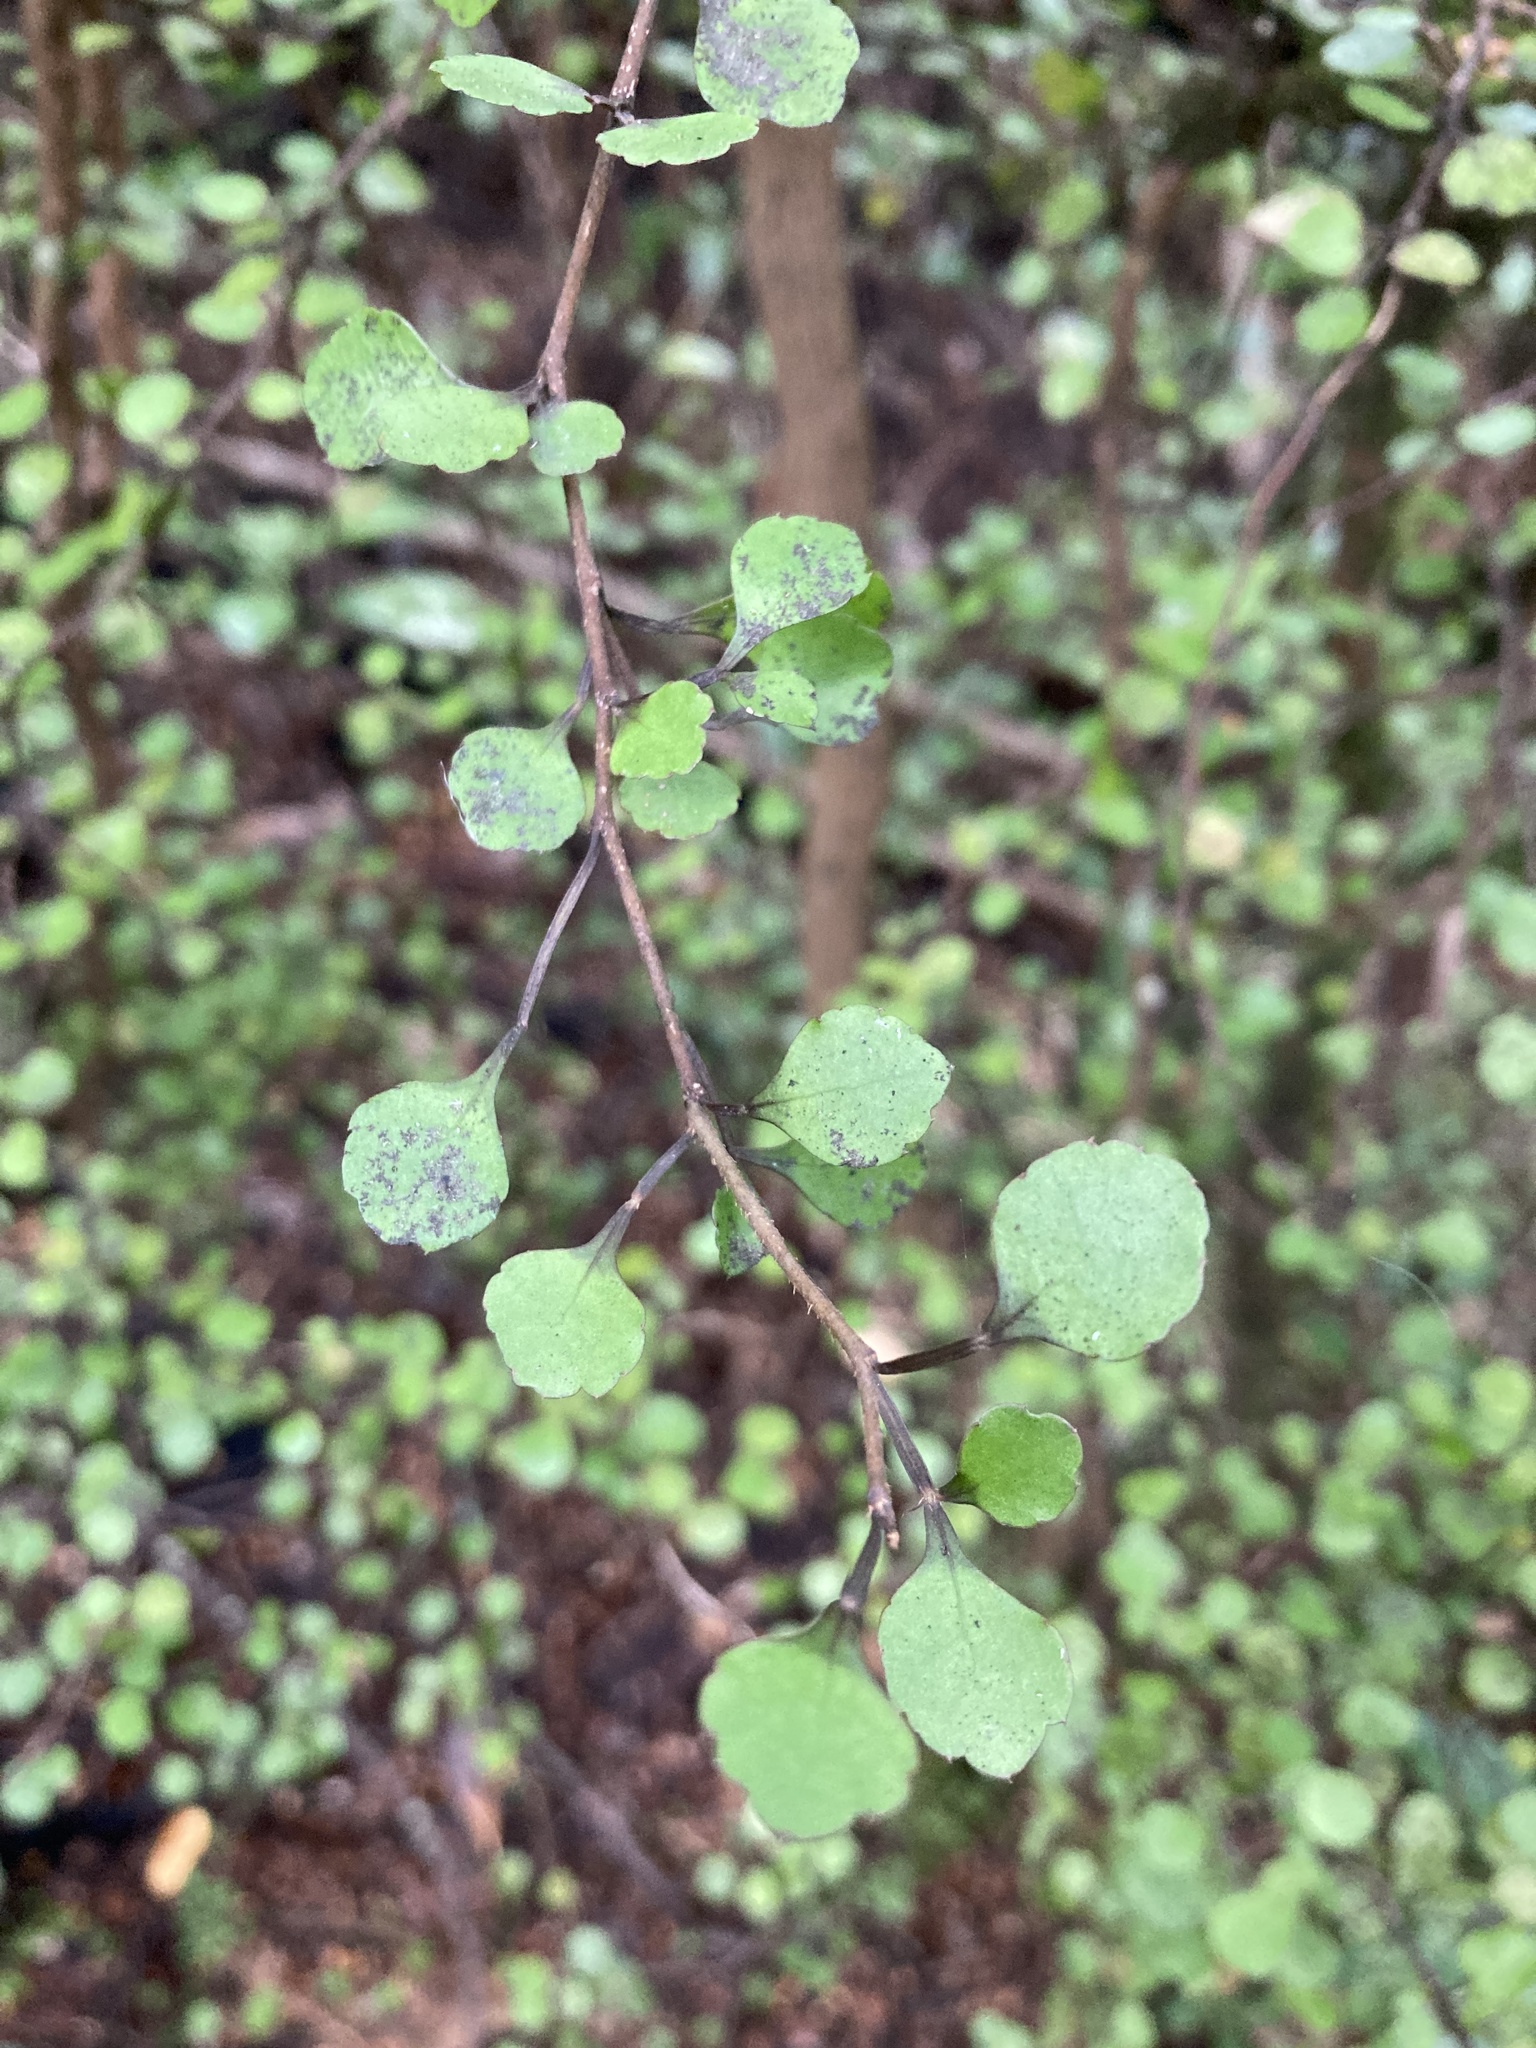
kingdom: Plantae
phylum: Tracheophyta
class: Magnoliopsida
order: Apiales
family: Araliaceae
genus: Raukaua
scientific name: Raukaua anomalus
